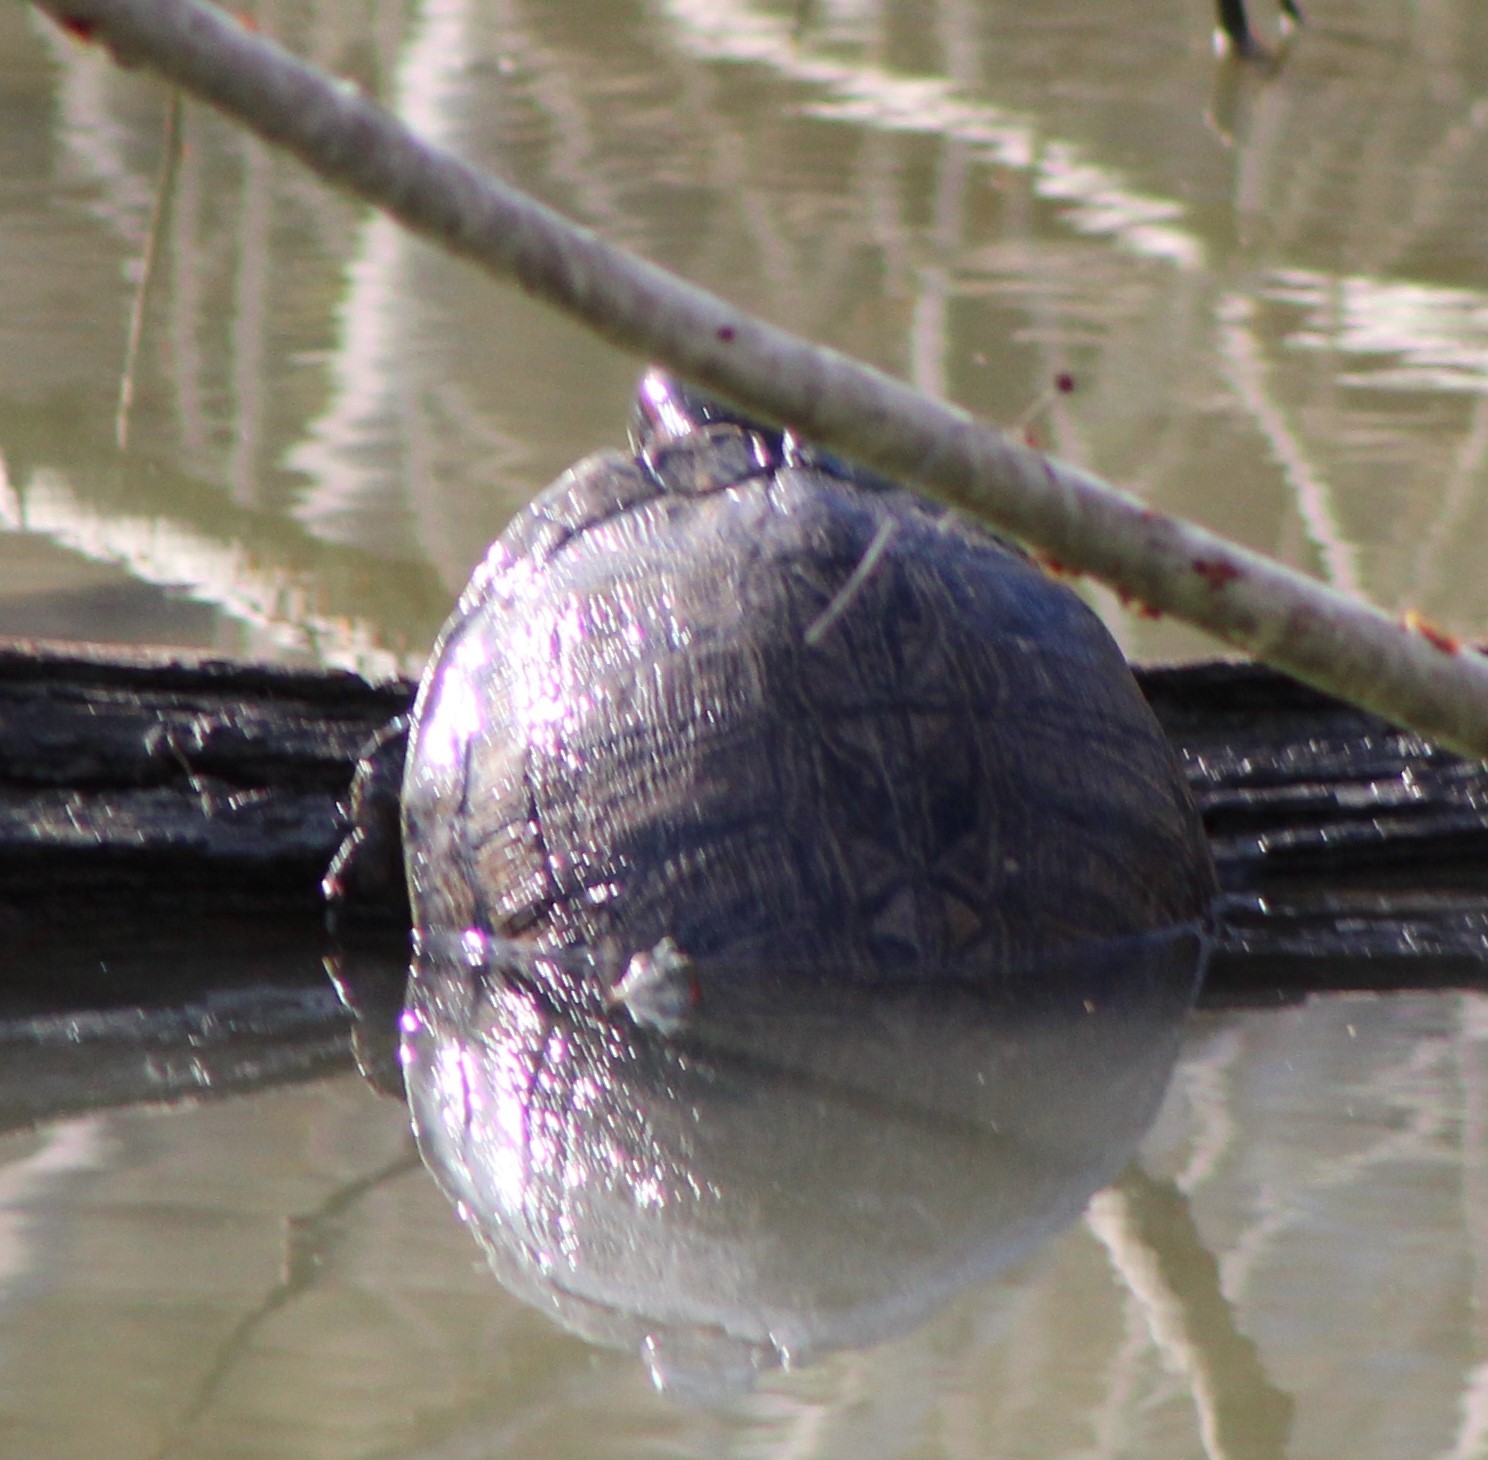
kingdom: Animalia
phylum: Chordata
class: Testudines
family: Emydidae
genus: Trachemys
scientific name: Trachemys scripta
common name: Slider
